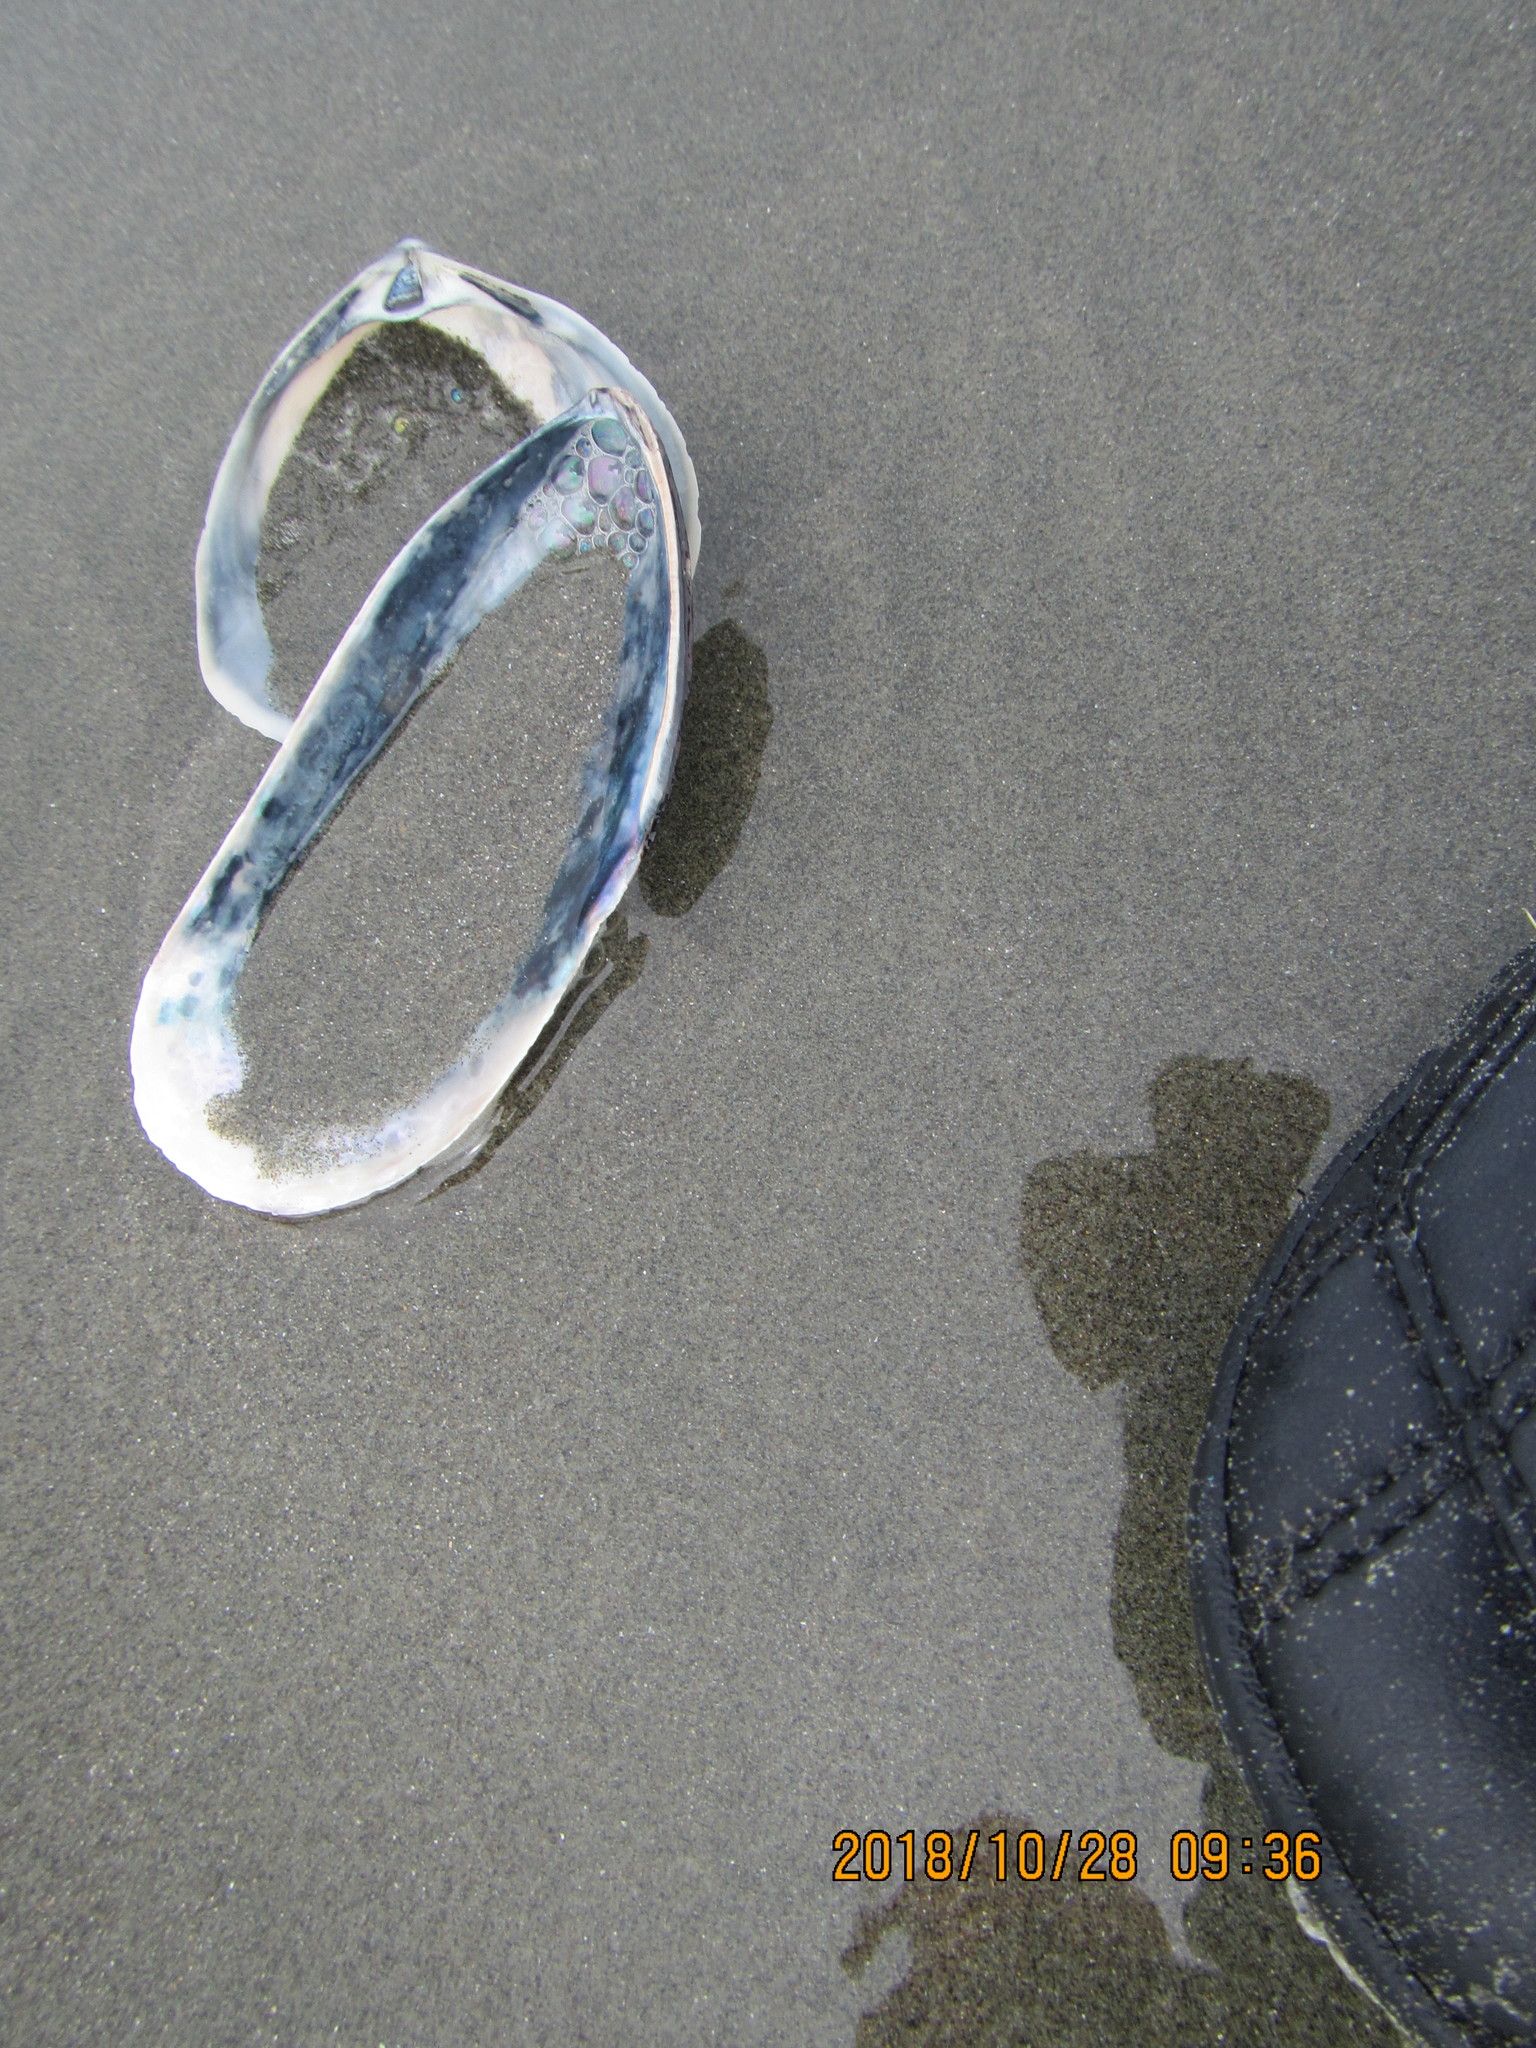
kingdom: Animalia
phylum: Mollusca
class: Bivalvia
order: Mytilida
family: Mytilidae
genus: Perna
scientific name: Perna canaliculus
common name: New zealand greenshelltm
